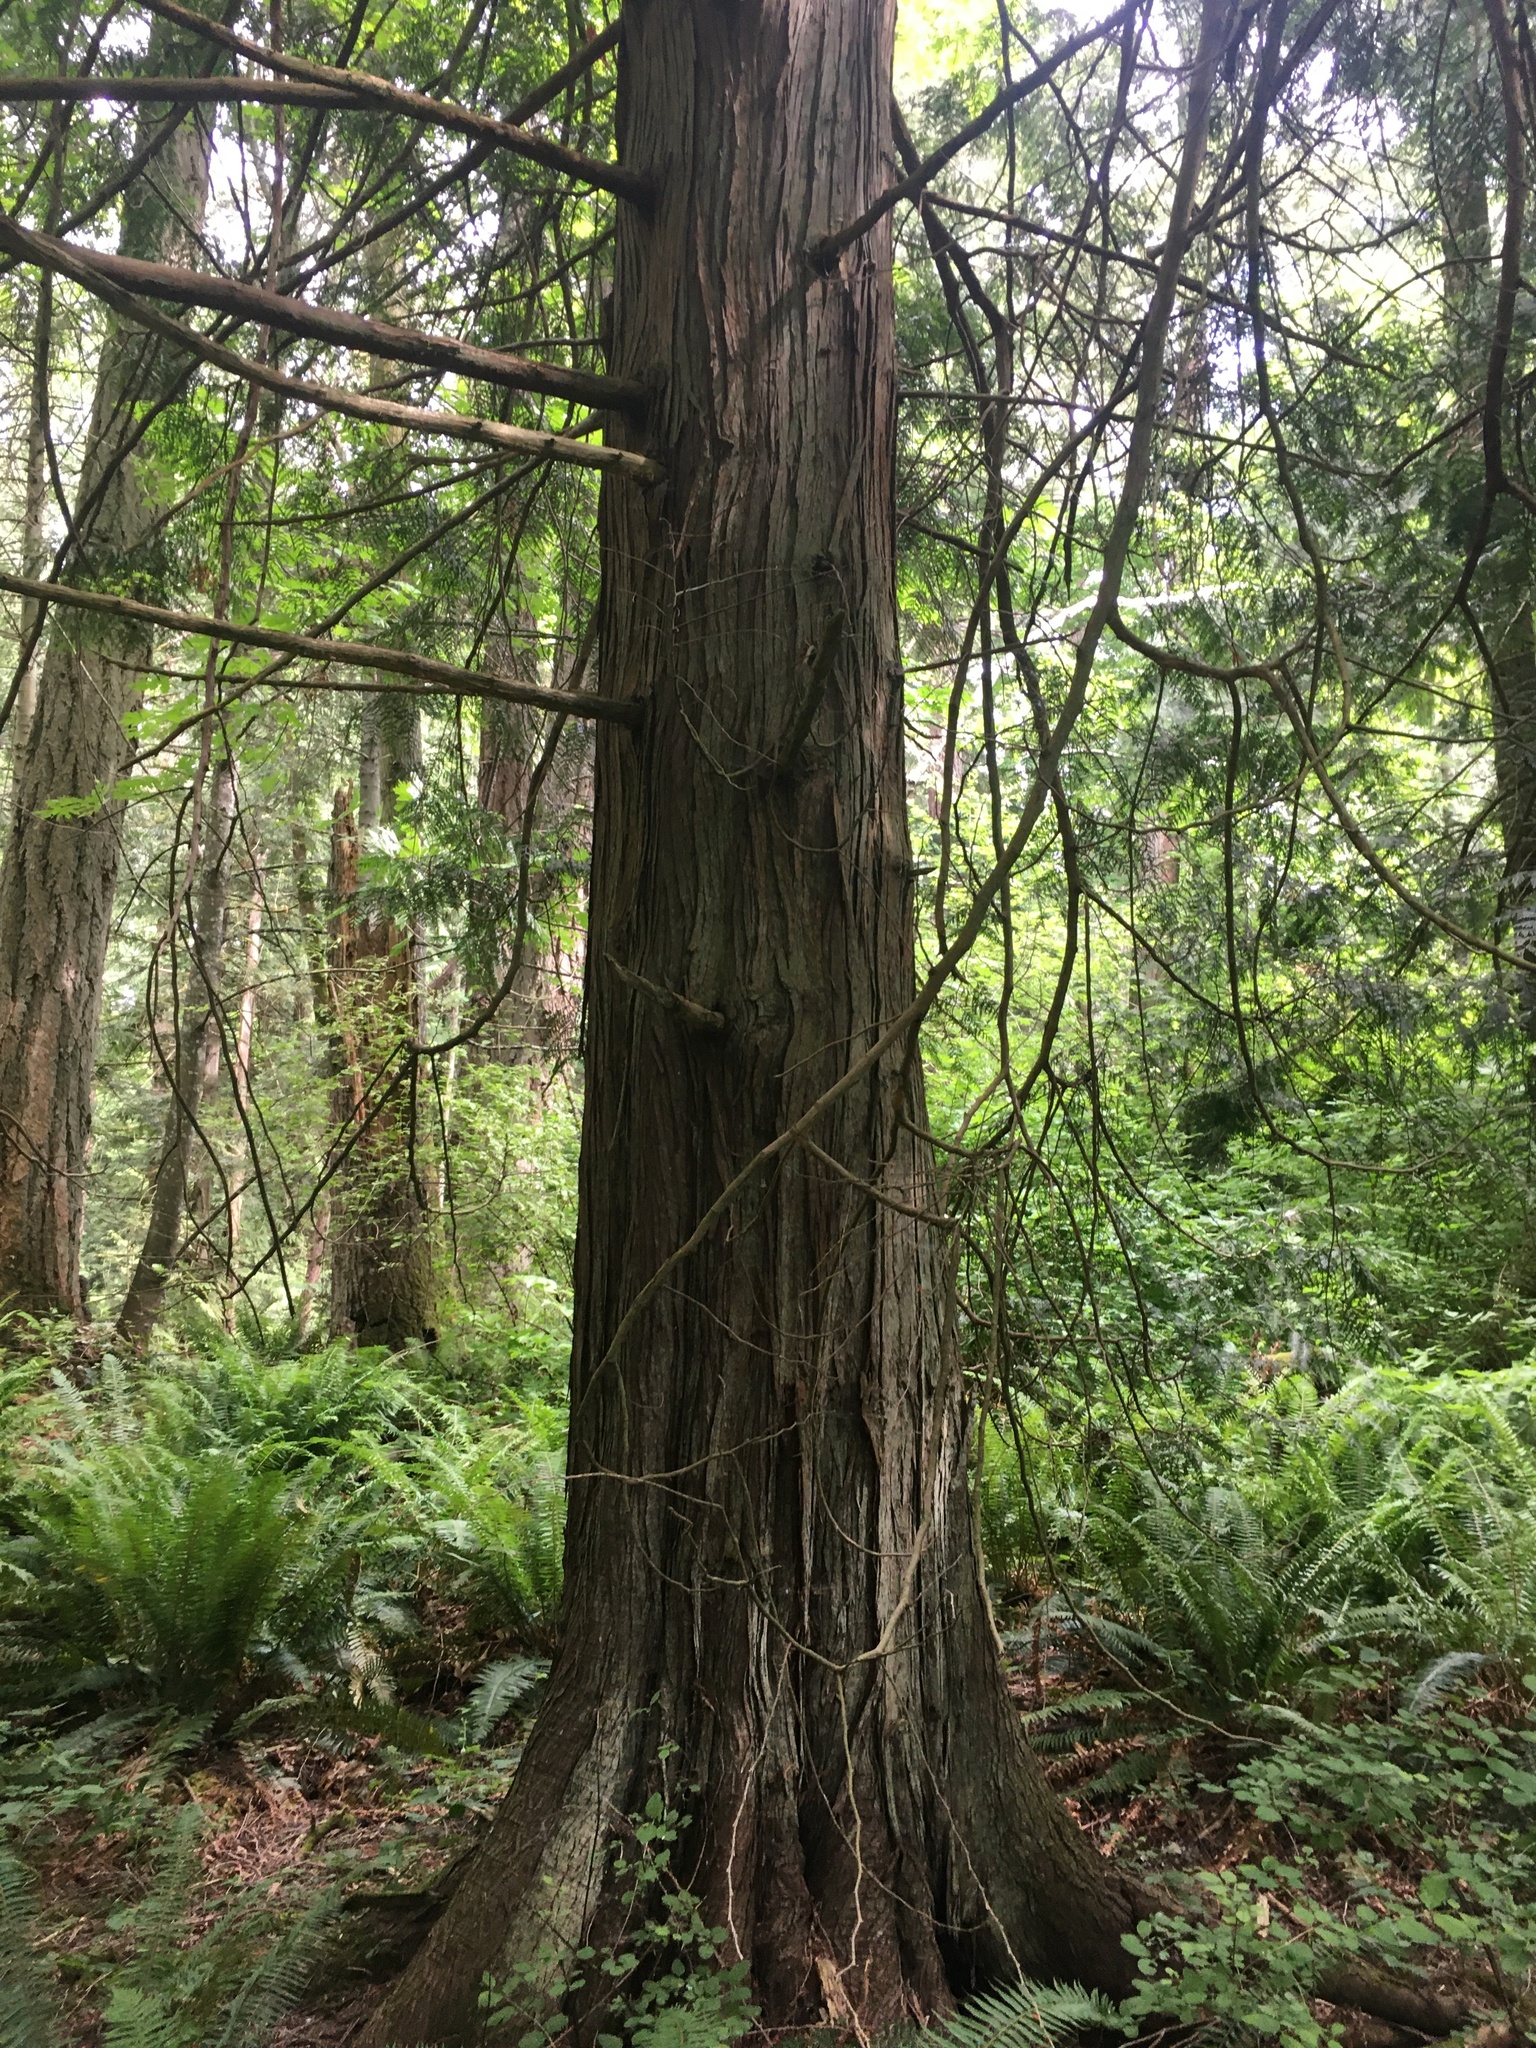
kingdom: Plantae
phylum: Tracheophyta
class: Pinopsida
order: Pinales
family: Cupressaceae
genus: Thuja
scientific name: Thuja plicata
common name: Western red-cedar
